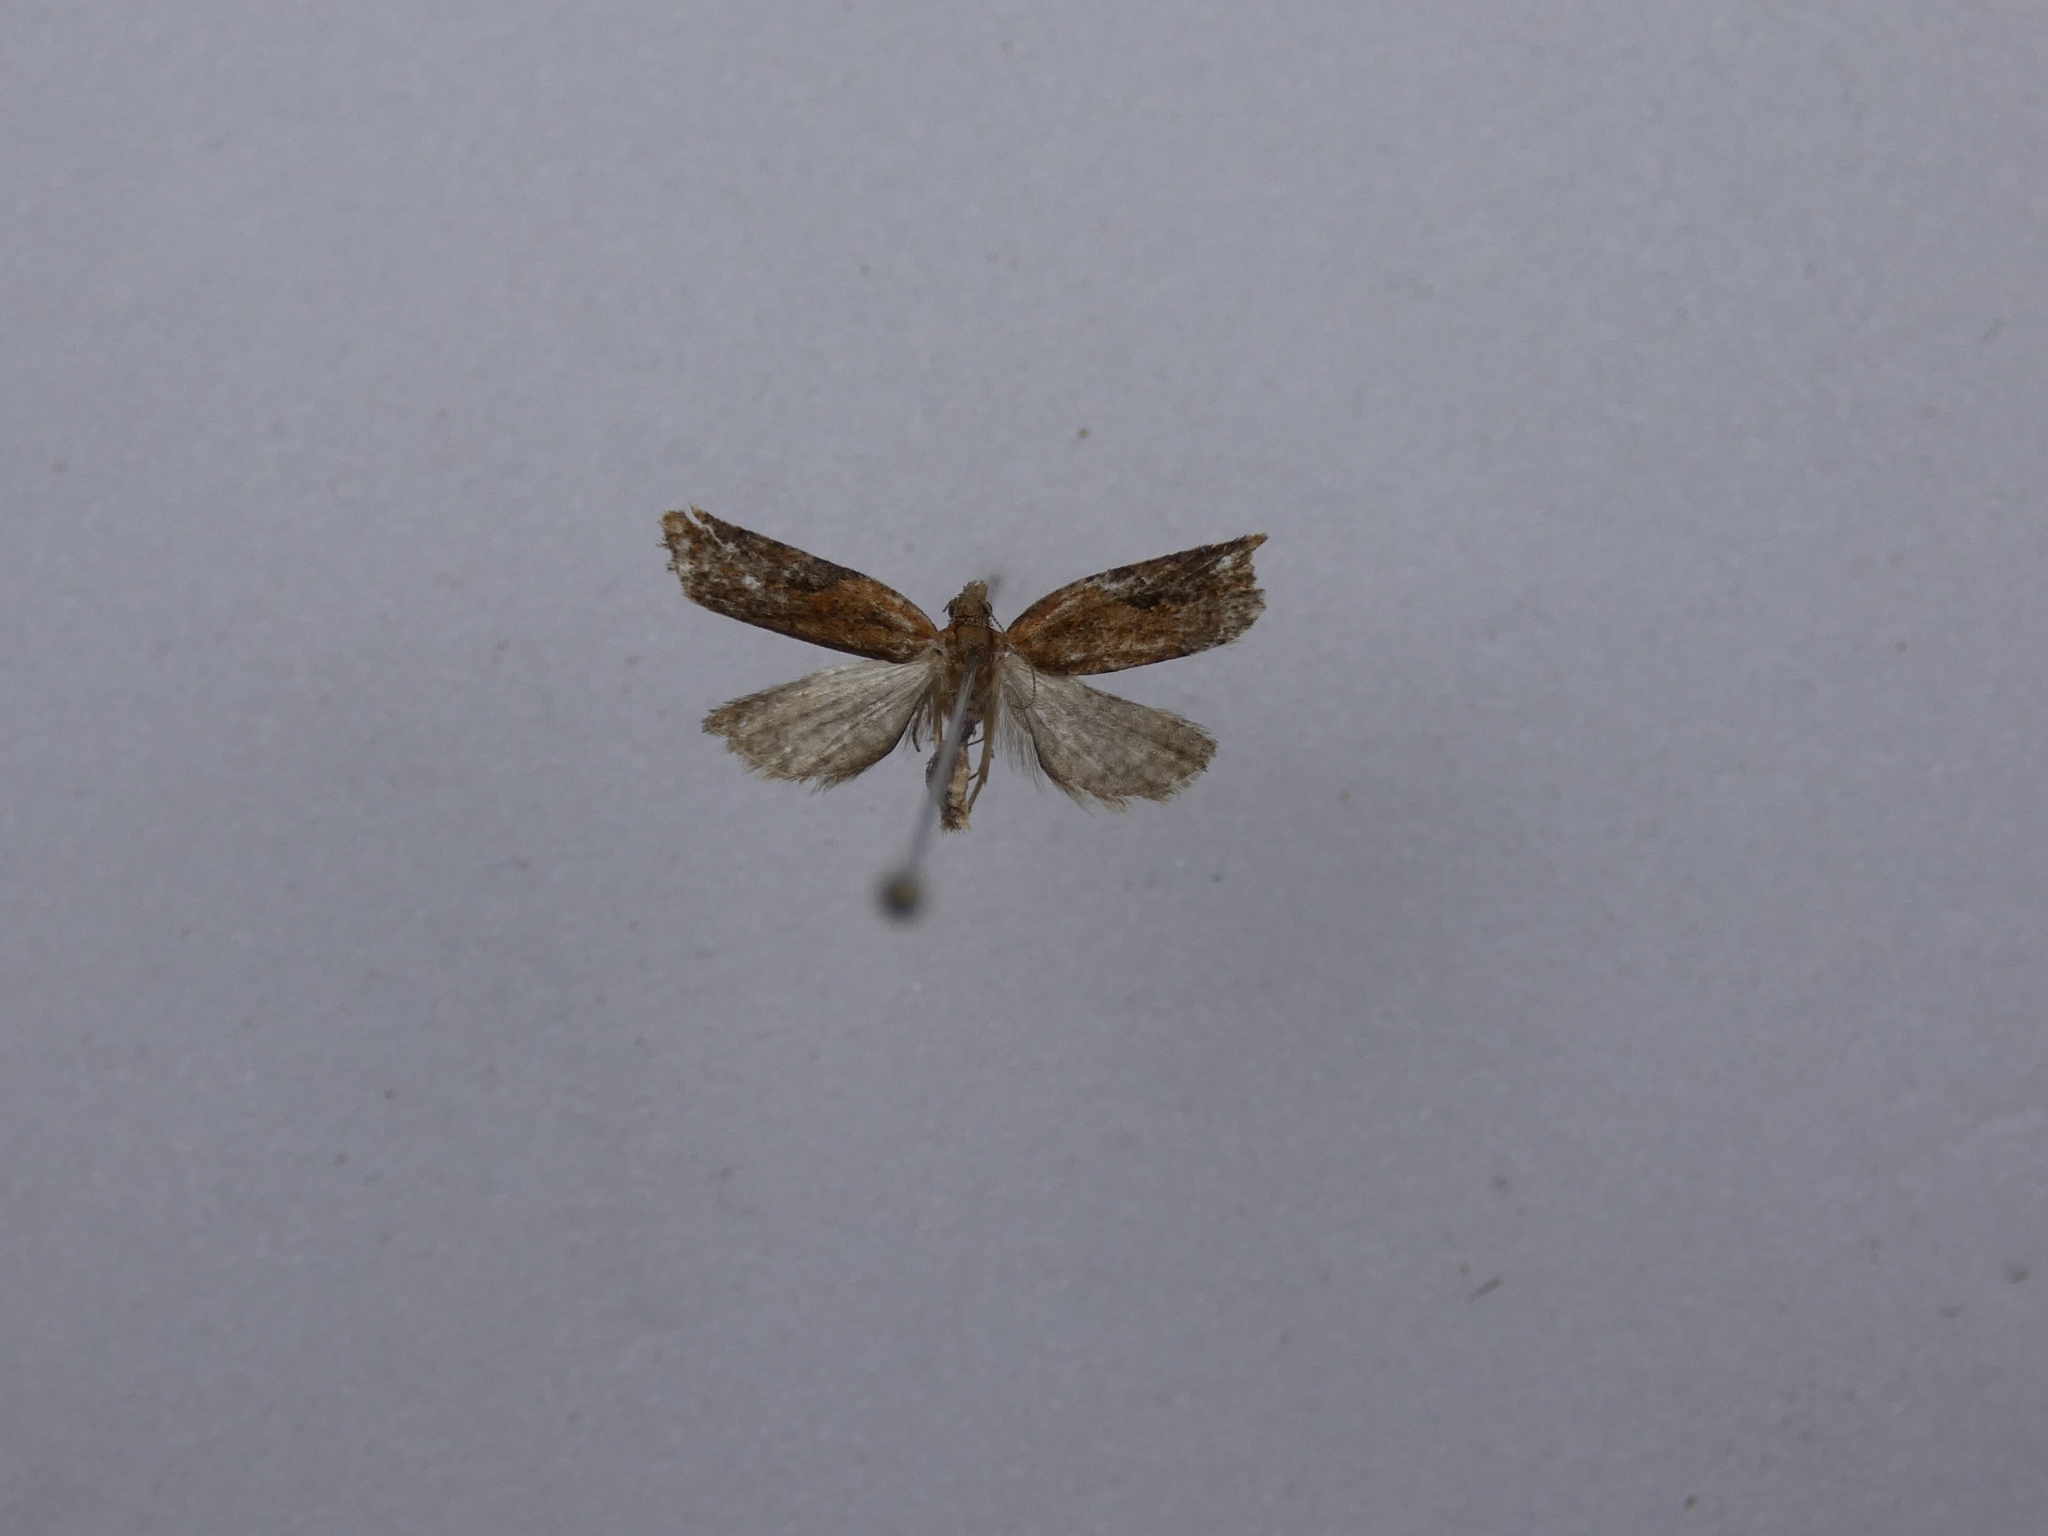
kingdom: Animalia
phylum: Arthropoda
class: Insecta
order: Lepidoptera
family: Tortricidae
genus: Capua
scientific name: Capua semiferana
